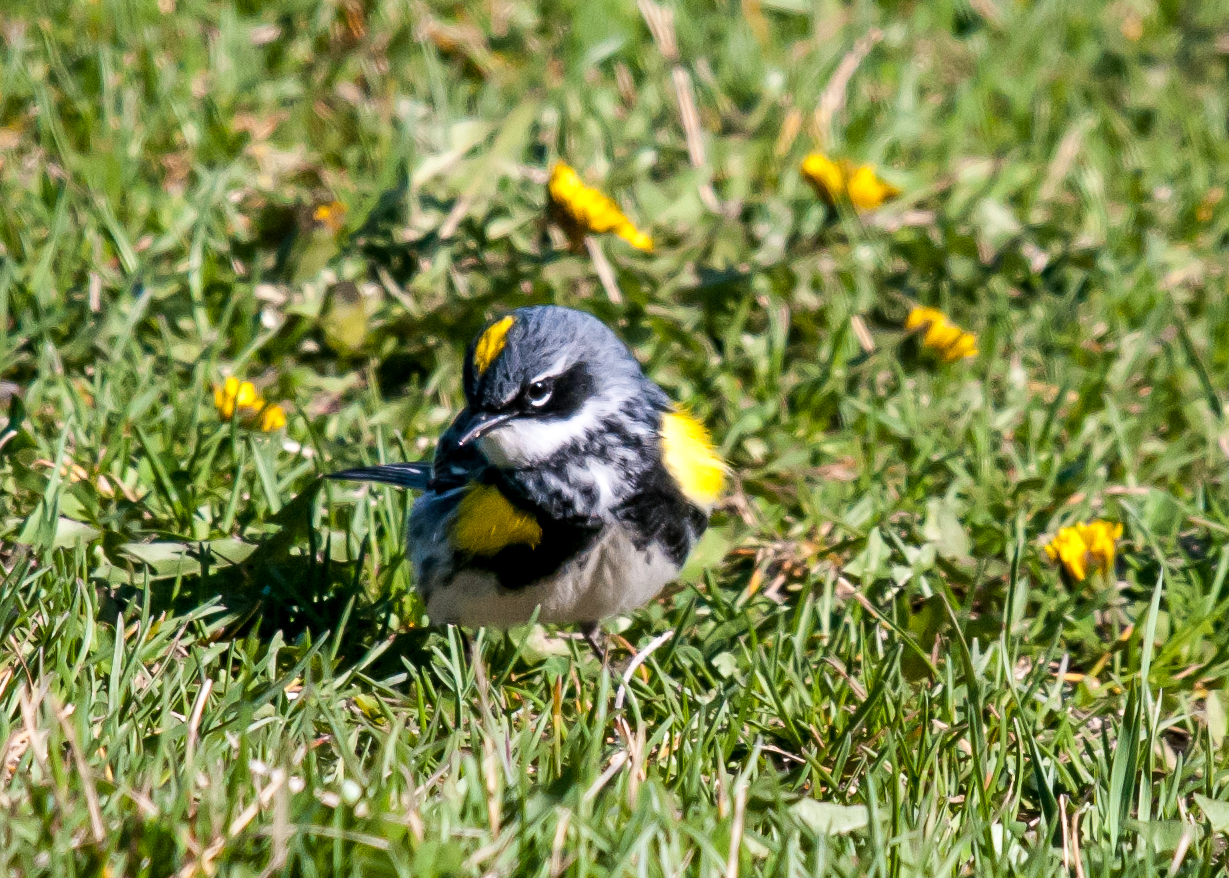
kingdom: Animalia
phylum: Chordata
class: Aves
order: Passeriformes
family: Parulidae
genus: Setophaga
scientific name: Setophaga coronata
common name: Myrtle warbler
